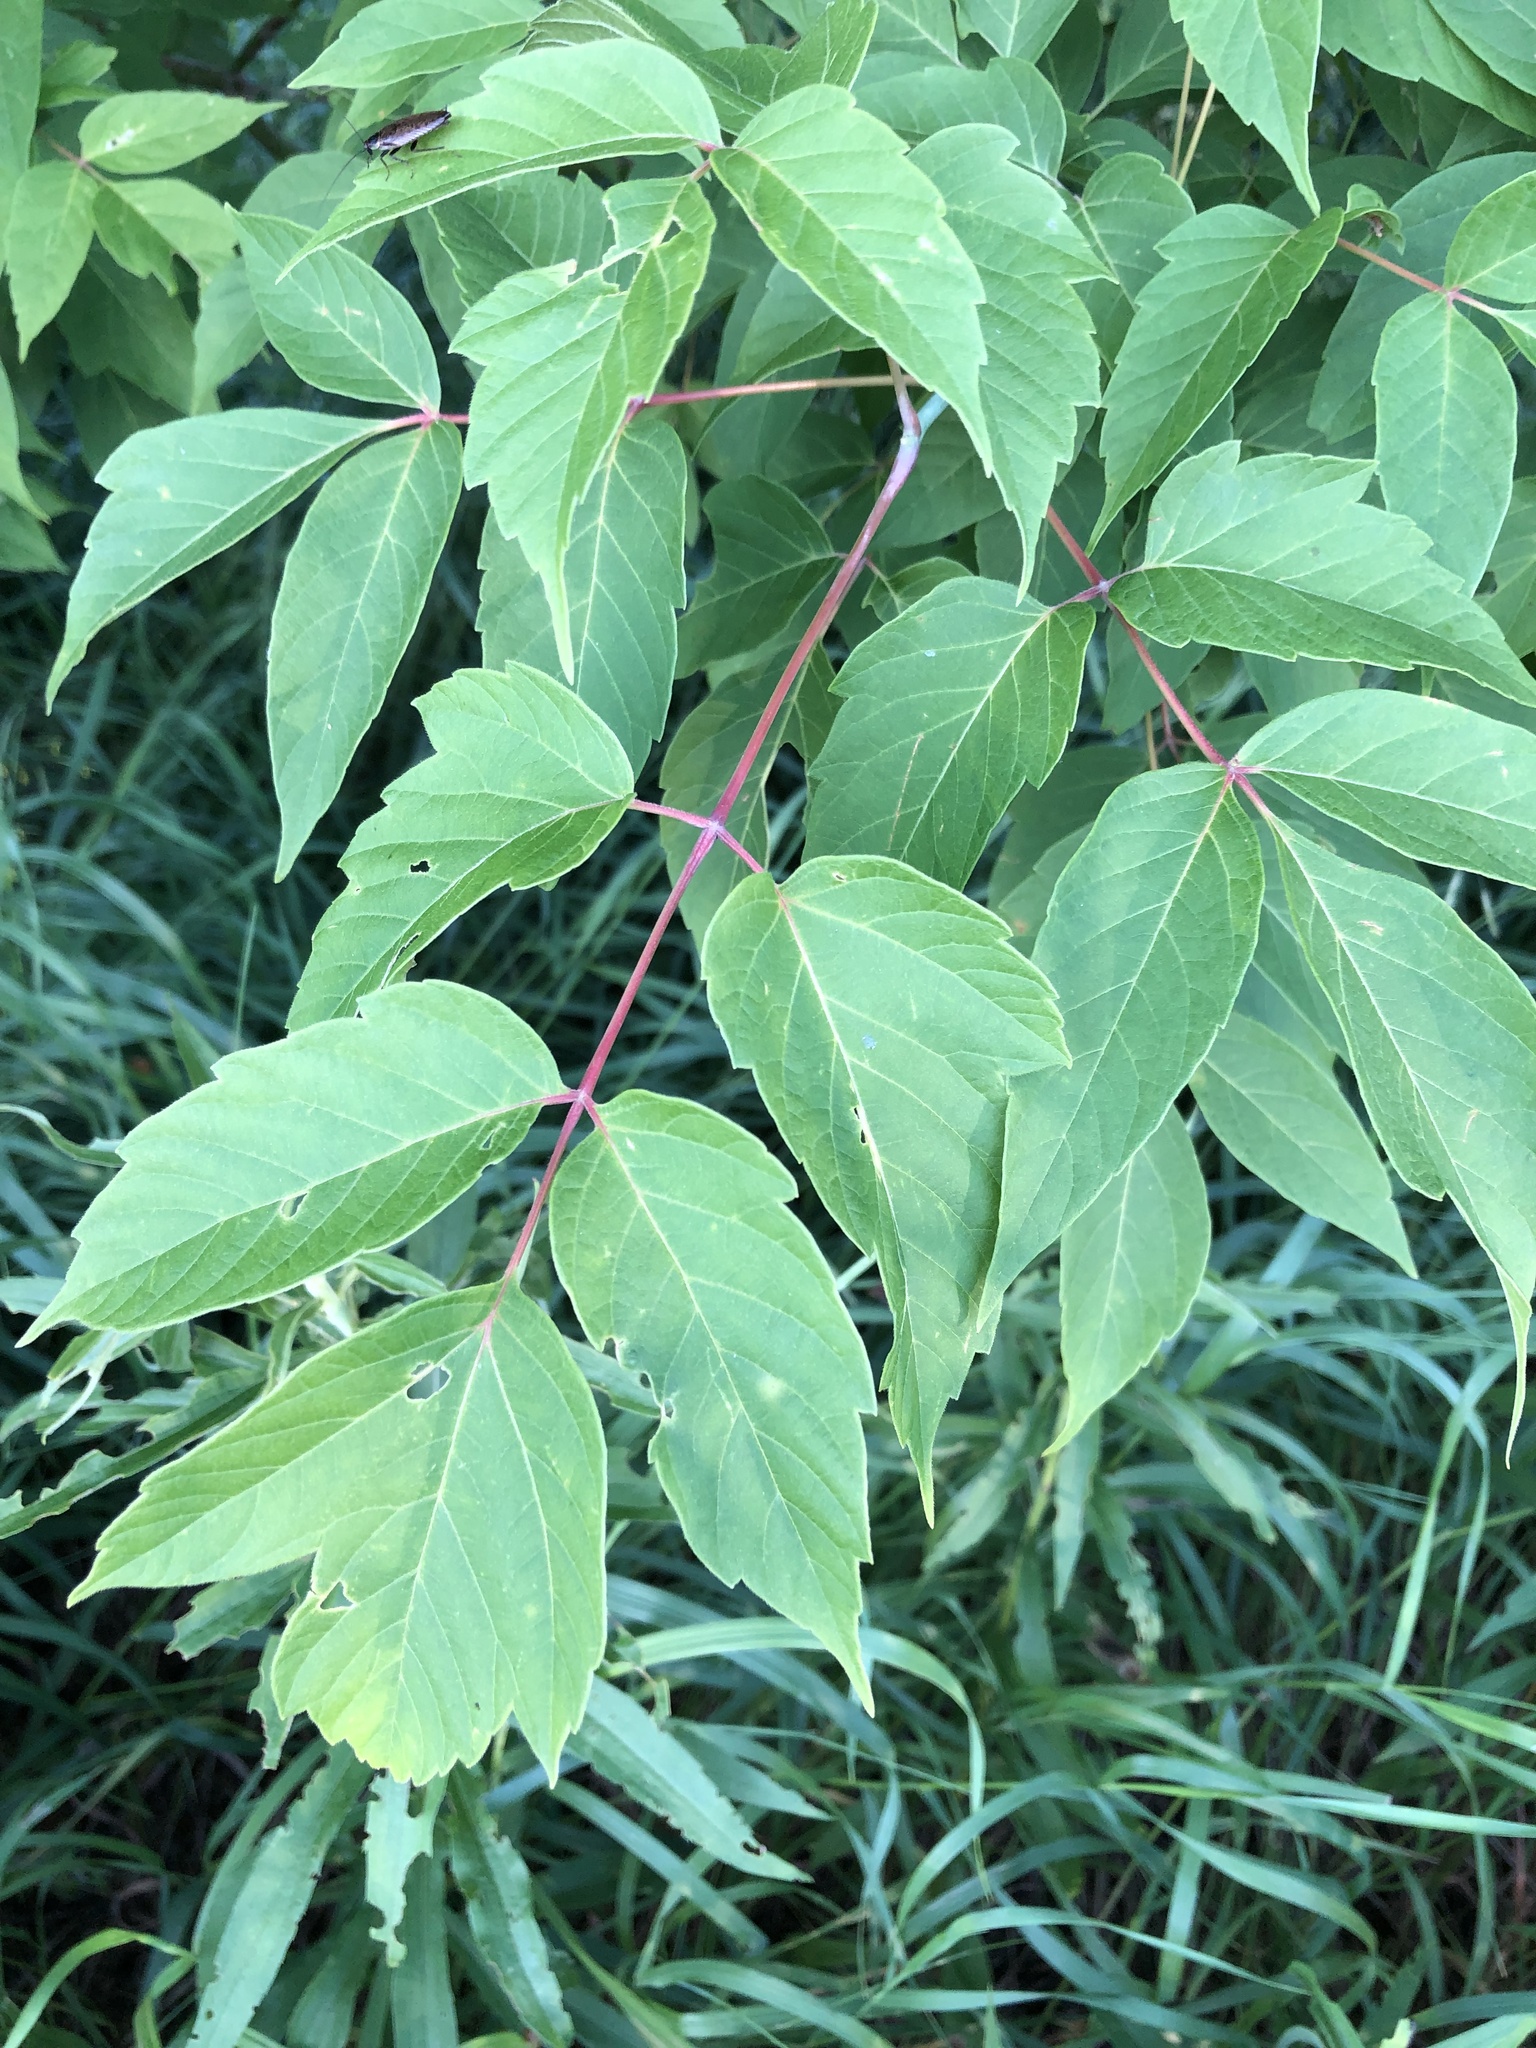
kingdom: Plantae
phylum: Tracheophyta
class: Magnoliopsida
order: Sapindales
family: Sapindaceae
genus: Acer
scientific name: Acer negundo
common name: Ashleaf maple
